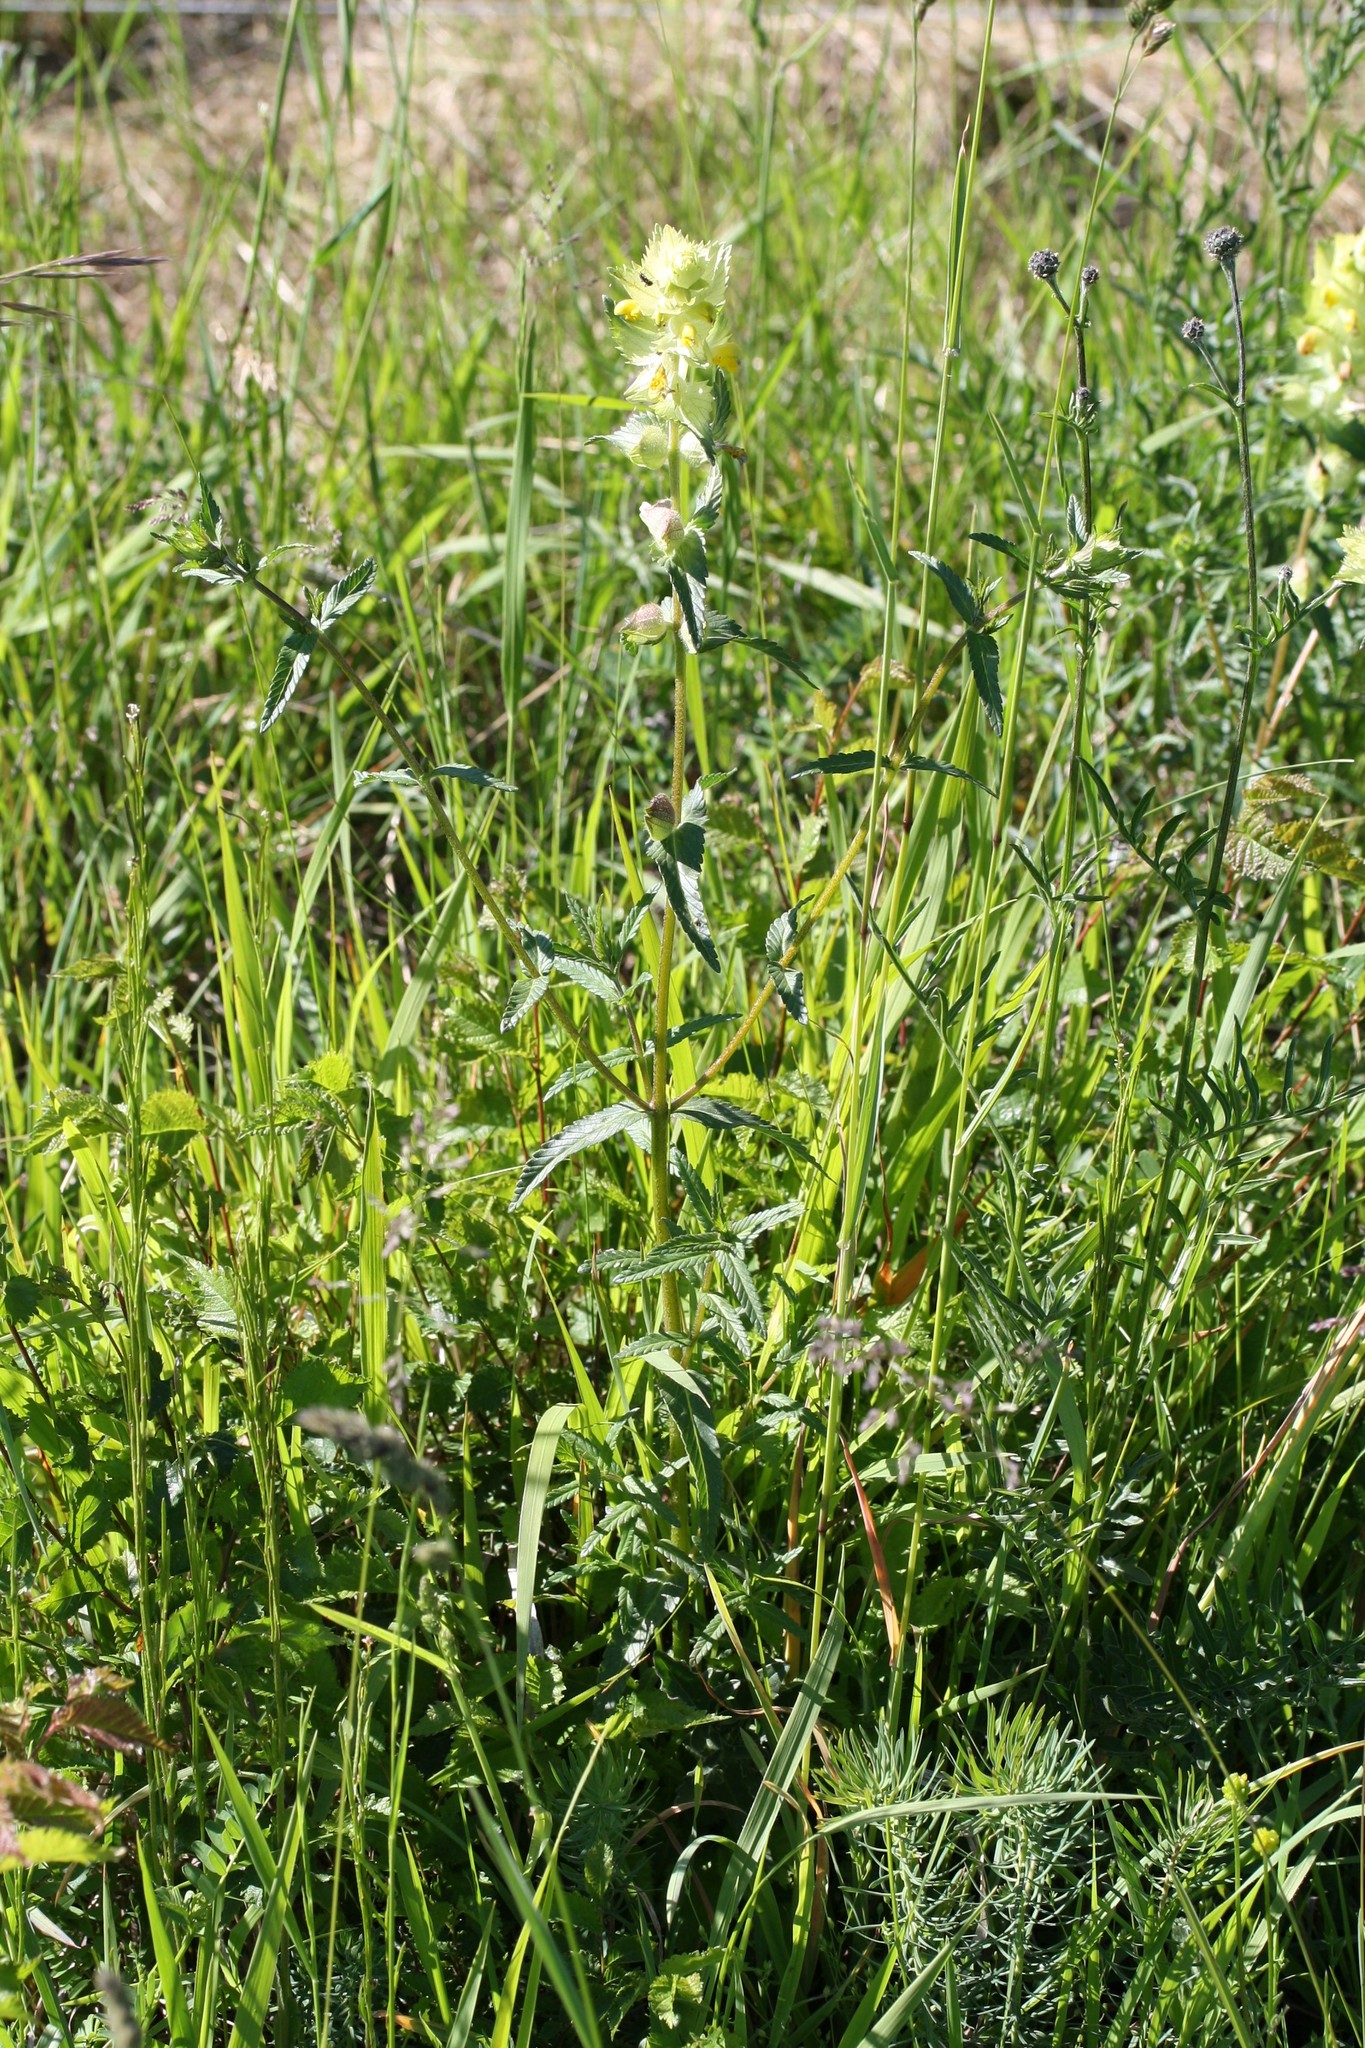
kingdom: Plantae
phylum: Tracheophyta
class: Magnoliopsida
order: Lamiales
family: Orobanchaceae
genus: Rhinanthus
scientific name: Rhinanthus alectorolophus
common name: Greater yellow-rattle
